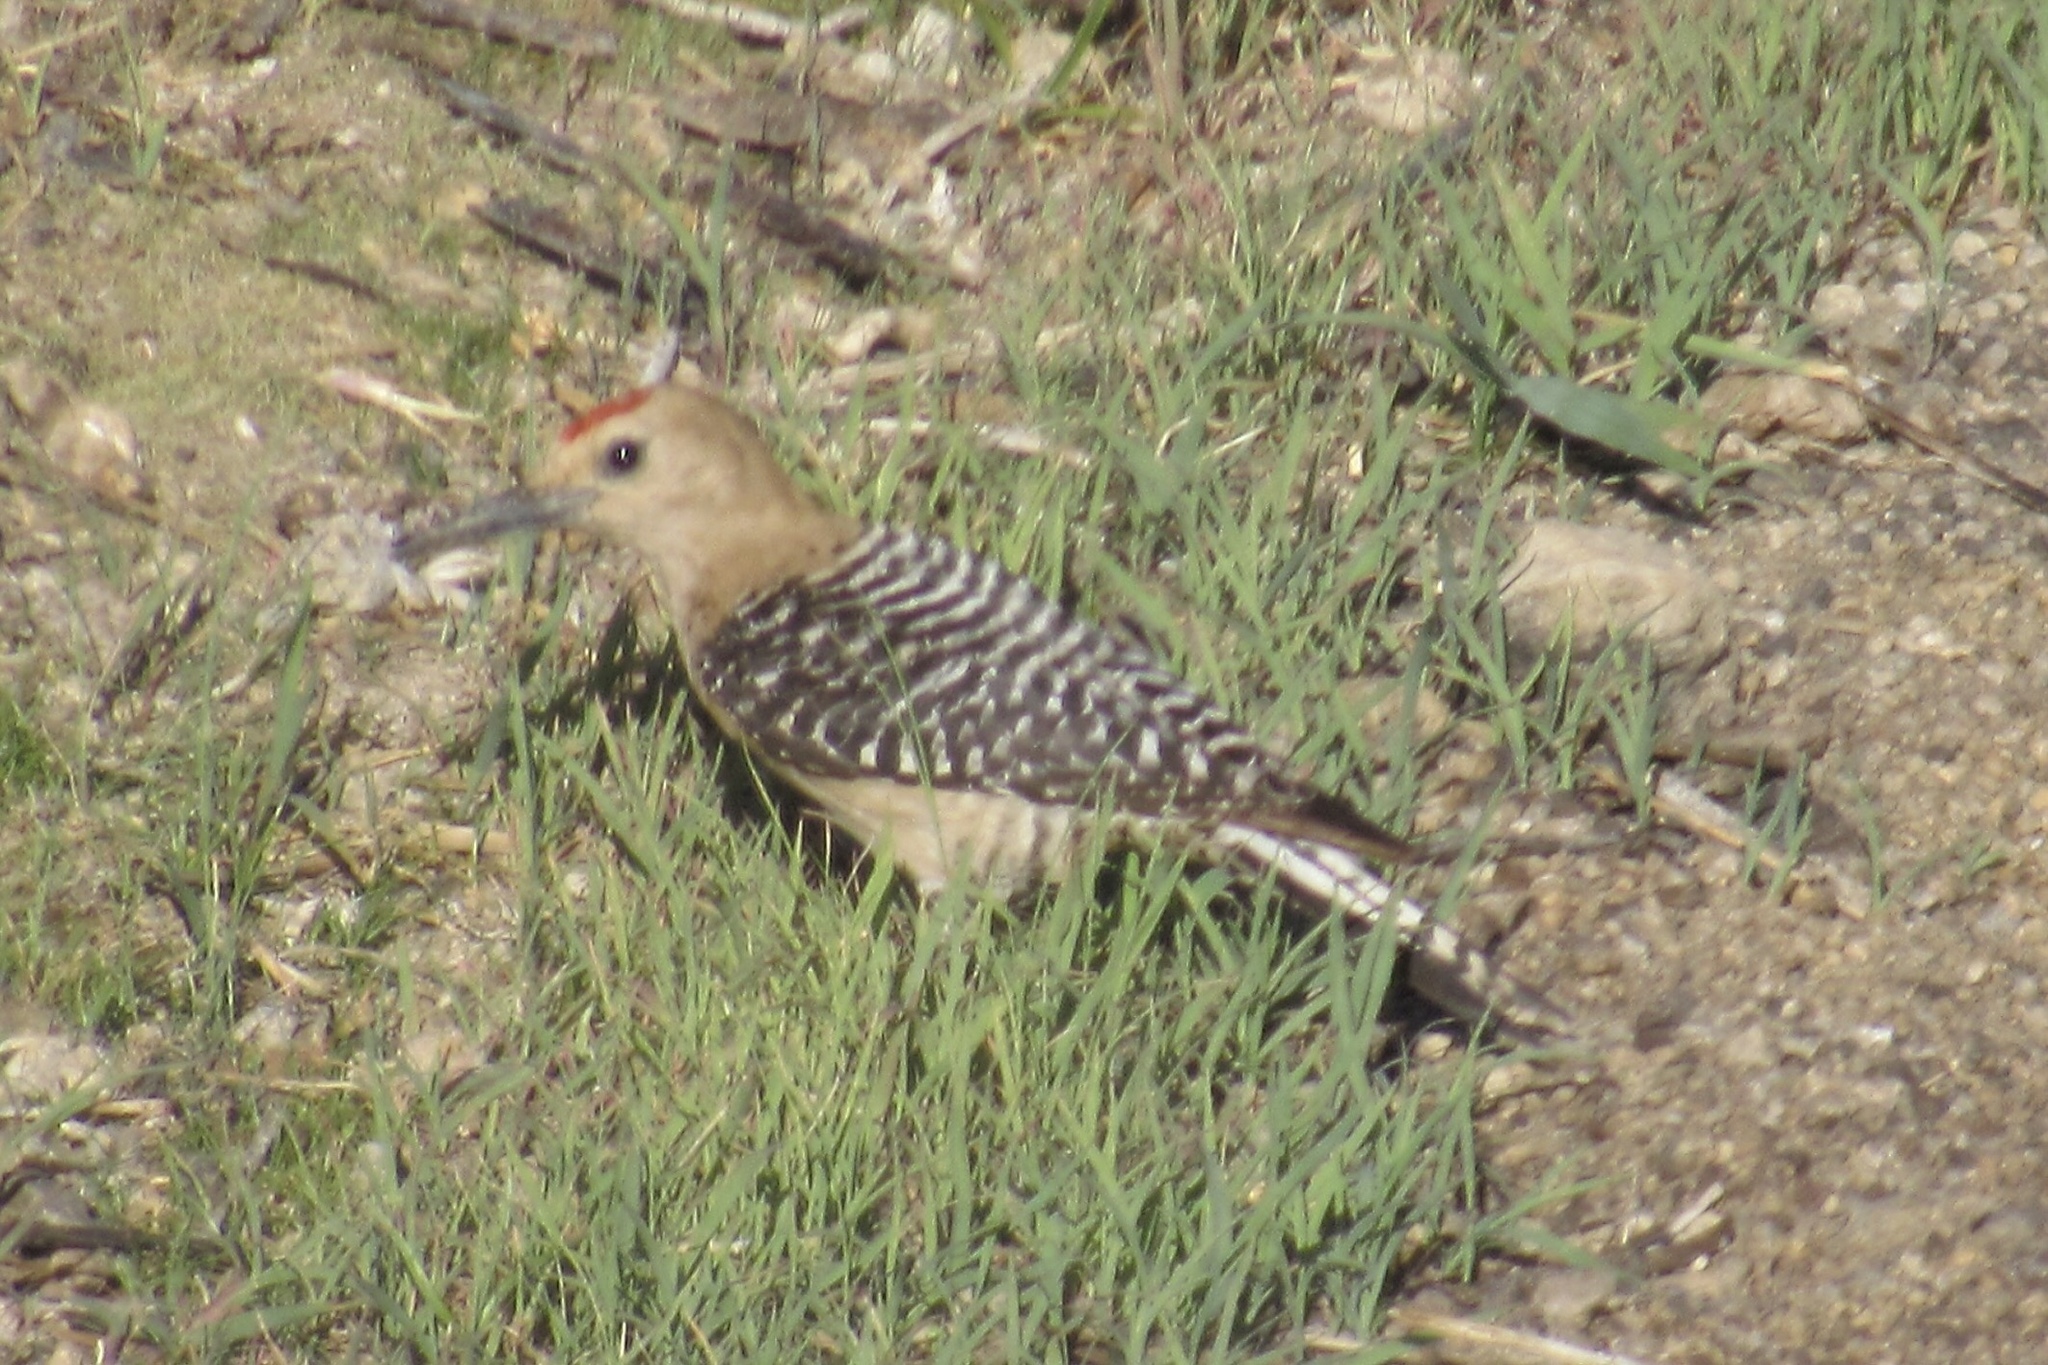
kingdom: Animalia
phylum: Chordata
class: Aves
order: Piciformes
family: Picidae
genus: Melanerpes
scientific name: Melanerpes uropygialis
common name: Gila woodpecker
